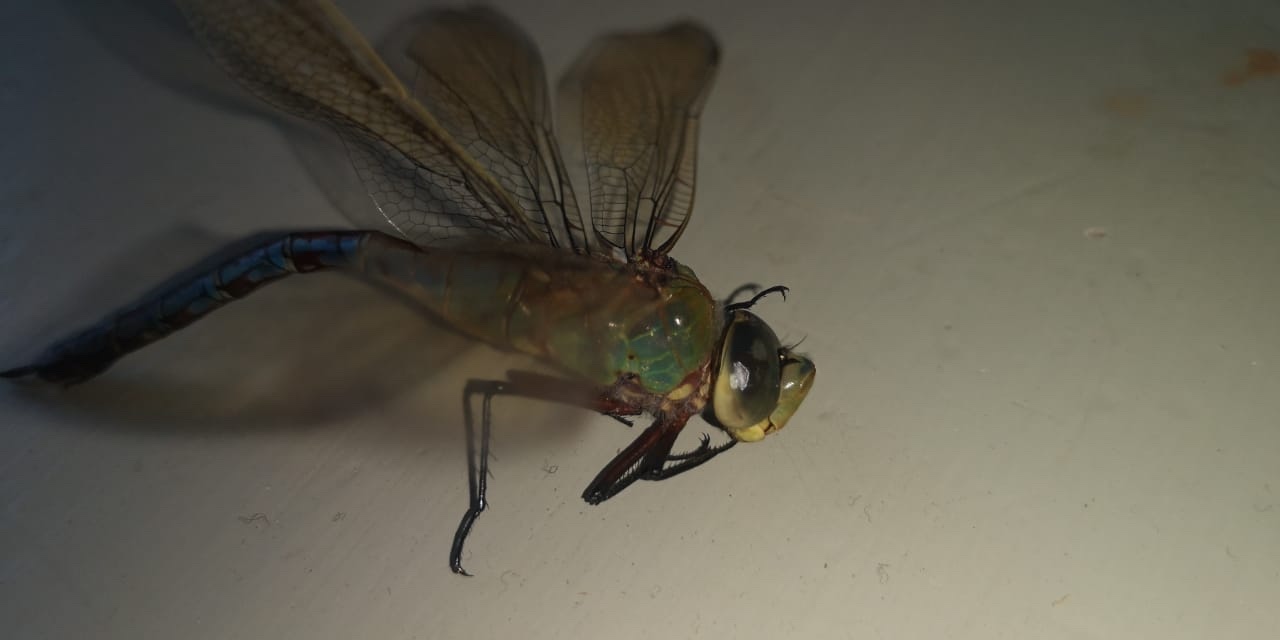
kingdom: Animalia
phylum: Arthropoda
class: Insecta
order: Odonata
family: Aeshnidae
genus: Anax
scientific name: Anax imperator
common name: Emperor dragonfly
